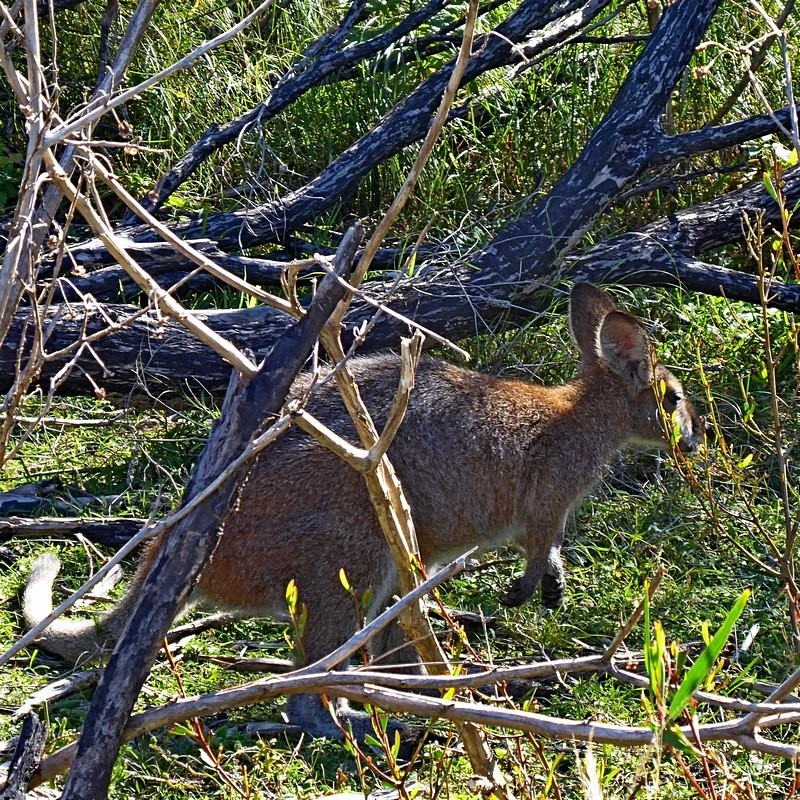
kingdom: Animalia
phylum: Chordata
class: Mammalia
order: Diprotodontia
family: Macropodidae
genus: Notamacropus
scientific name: Notamacropus rufogriseus
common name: Red-necked wallaby
